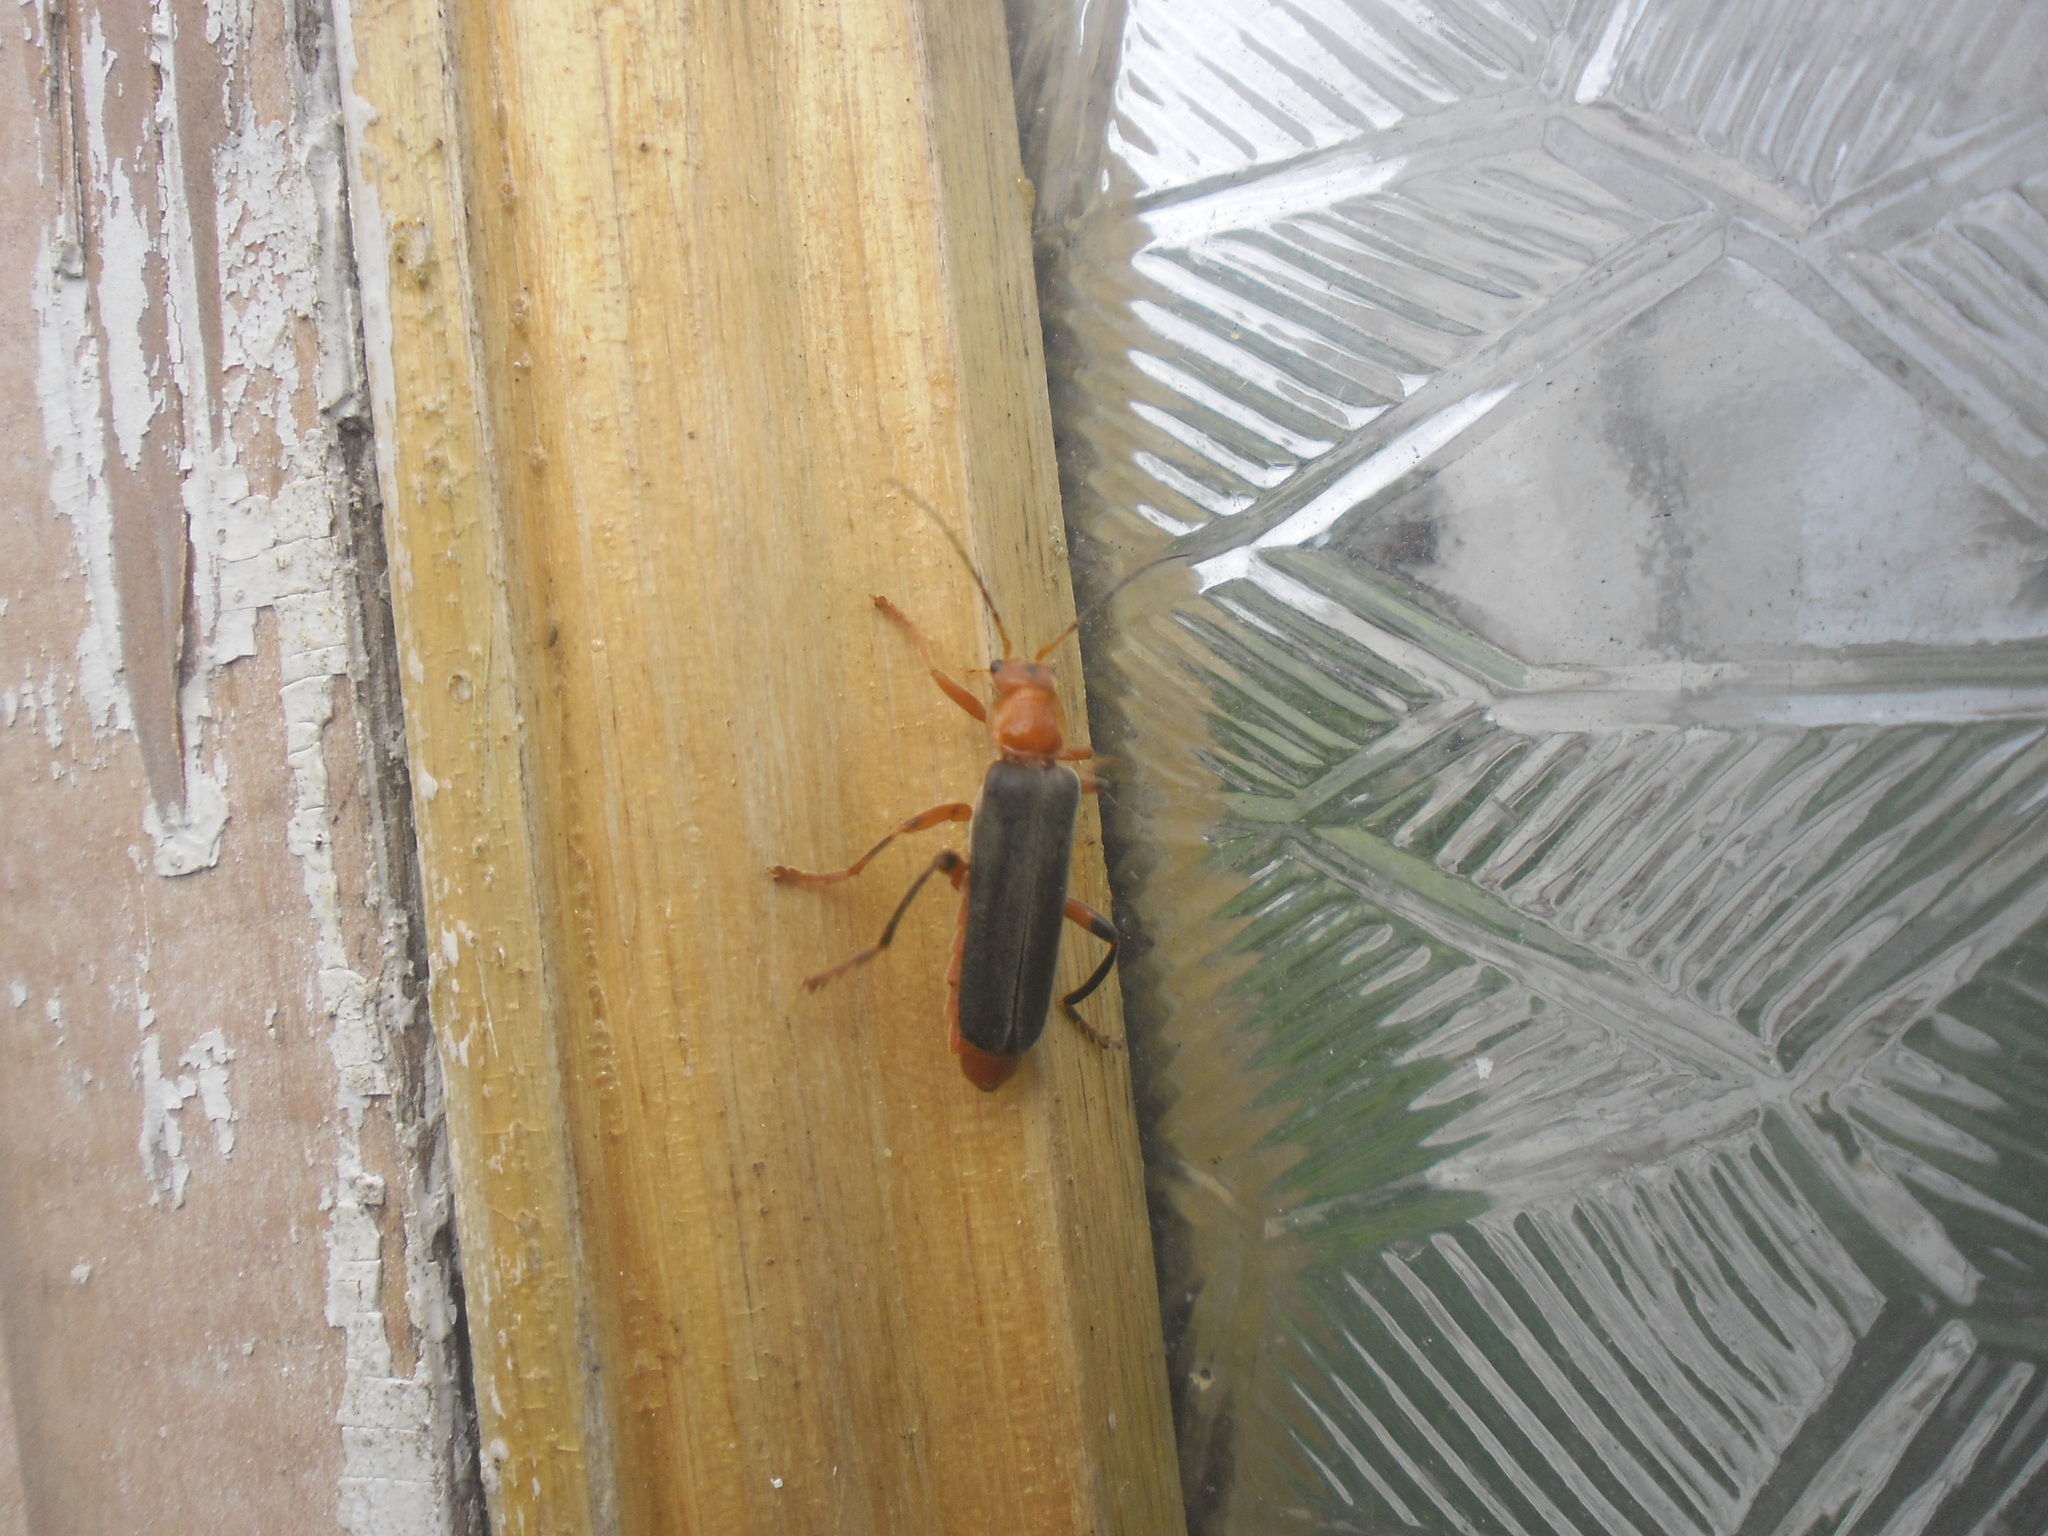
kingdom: Animalia
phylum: Arthropoda
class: Insecta
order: Coleoptera
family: Cantharidae
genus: Cantharis
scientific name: Cantharis livida
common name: Livid soldier beetle
